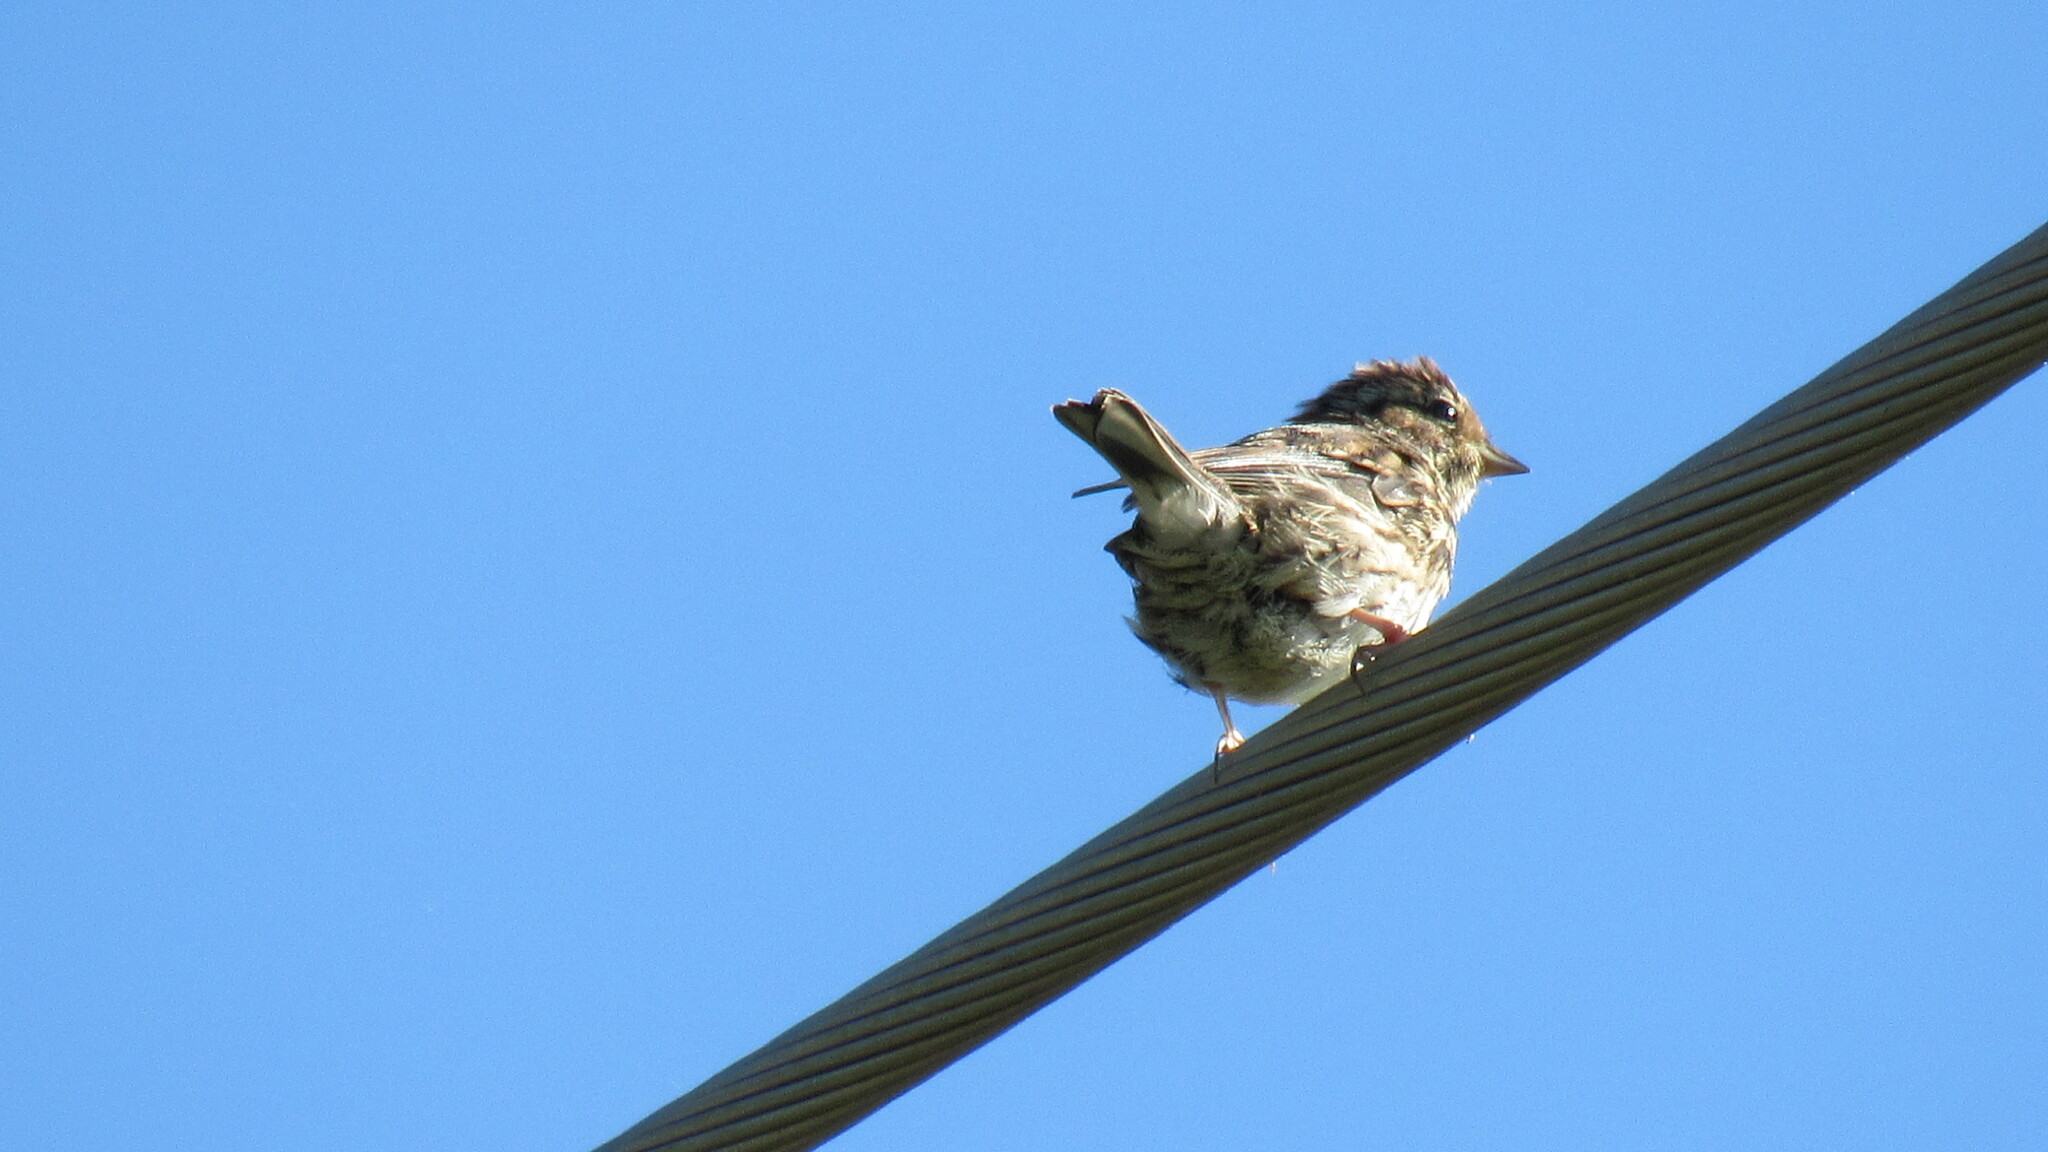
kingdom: Animalia
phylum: Chordata
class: Aves
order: Passeriformes
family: Emberizidae
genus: Emberiza
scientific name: Emberiza pusilla
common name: Little bunting
